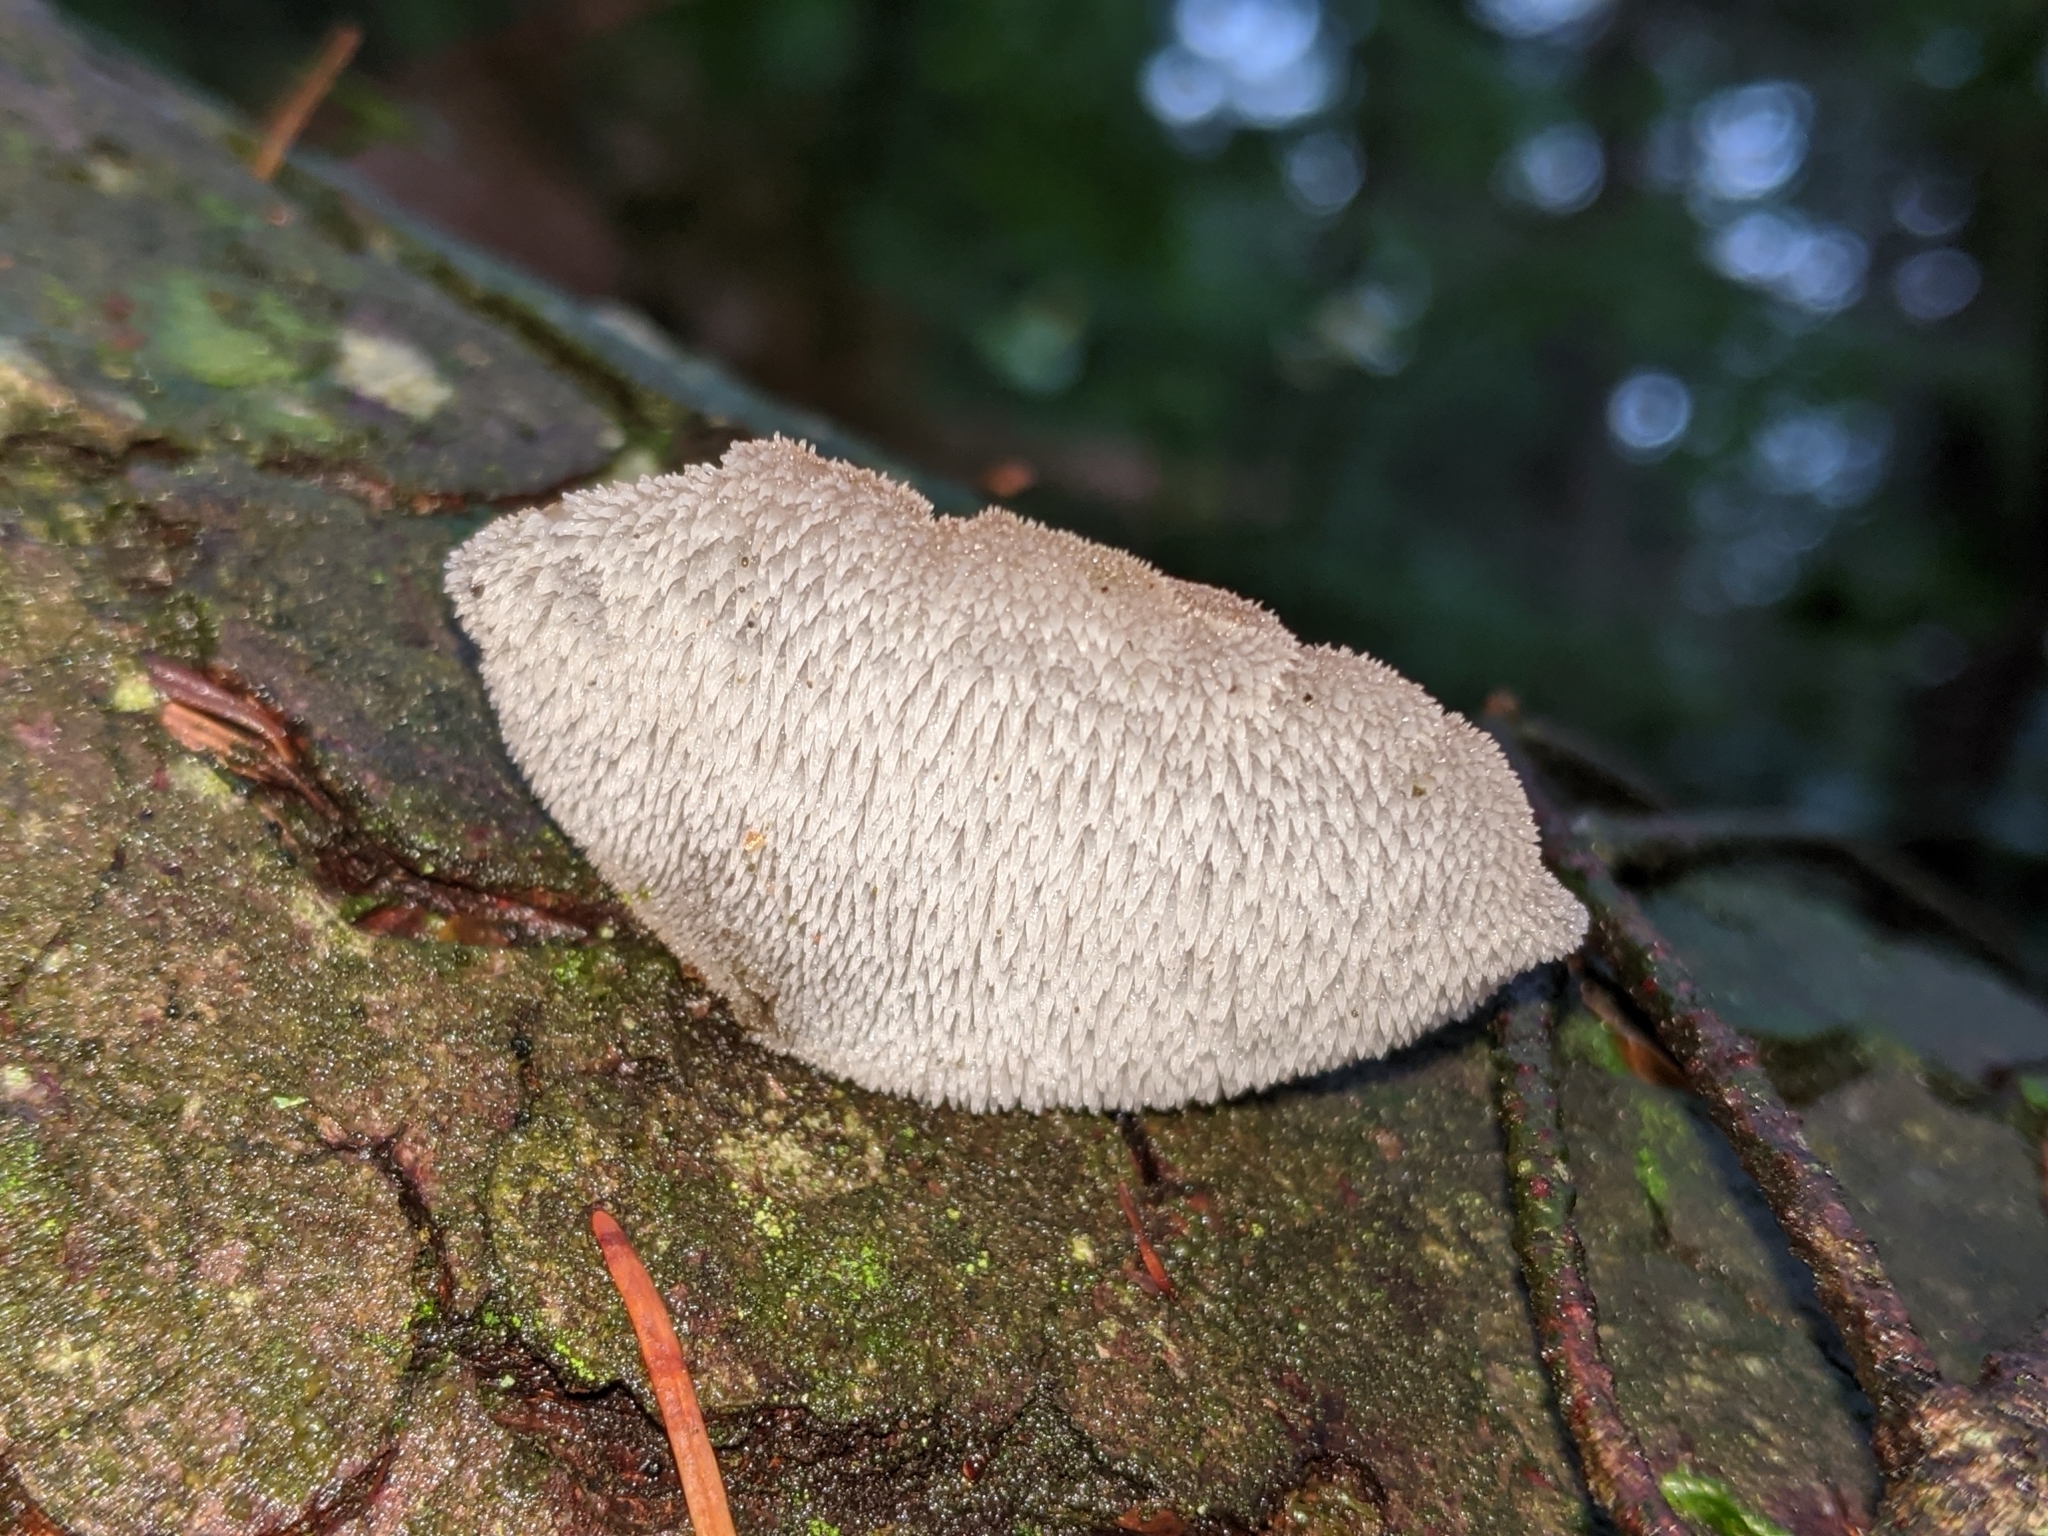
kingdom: Fungi
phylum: Basidiomycota
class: Agaricomycetes
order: Auriculariales
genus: Pseudohydnum
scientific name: Pseudohydnum gelatinosum
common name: Jelly tongue
